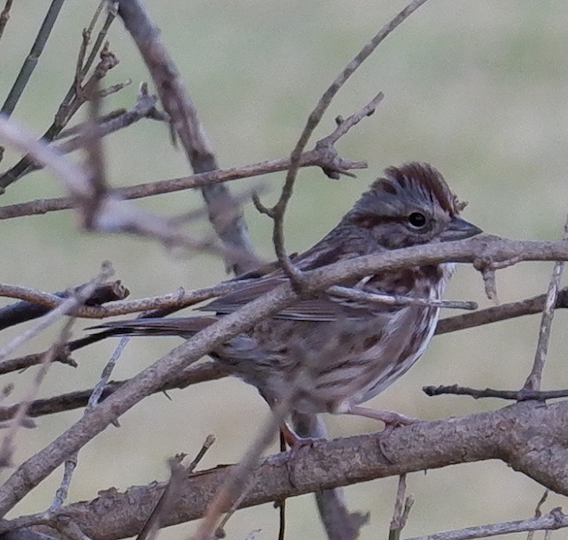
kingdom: Animalia
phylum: Chordata
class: Aves
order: Passeriformes
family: Passerellidae
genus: Melospiza
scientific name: Melospiza melodia
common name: Song sparrow
